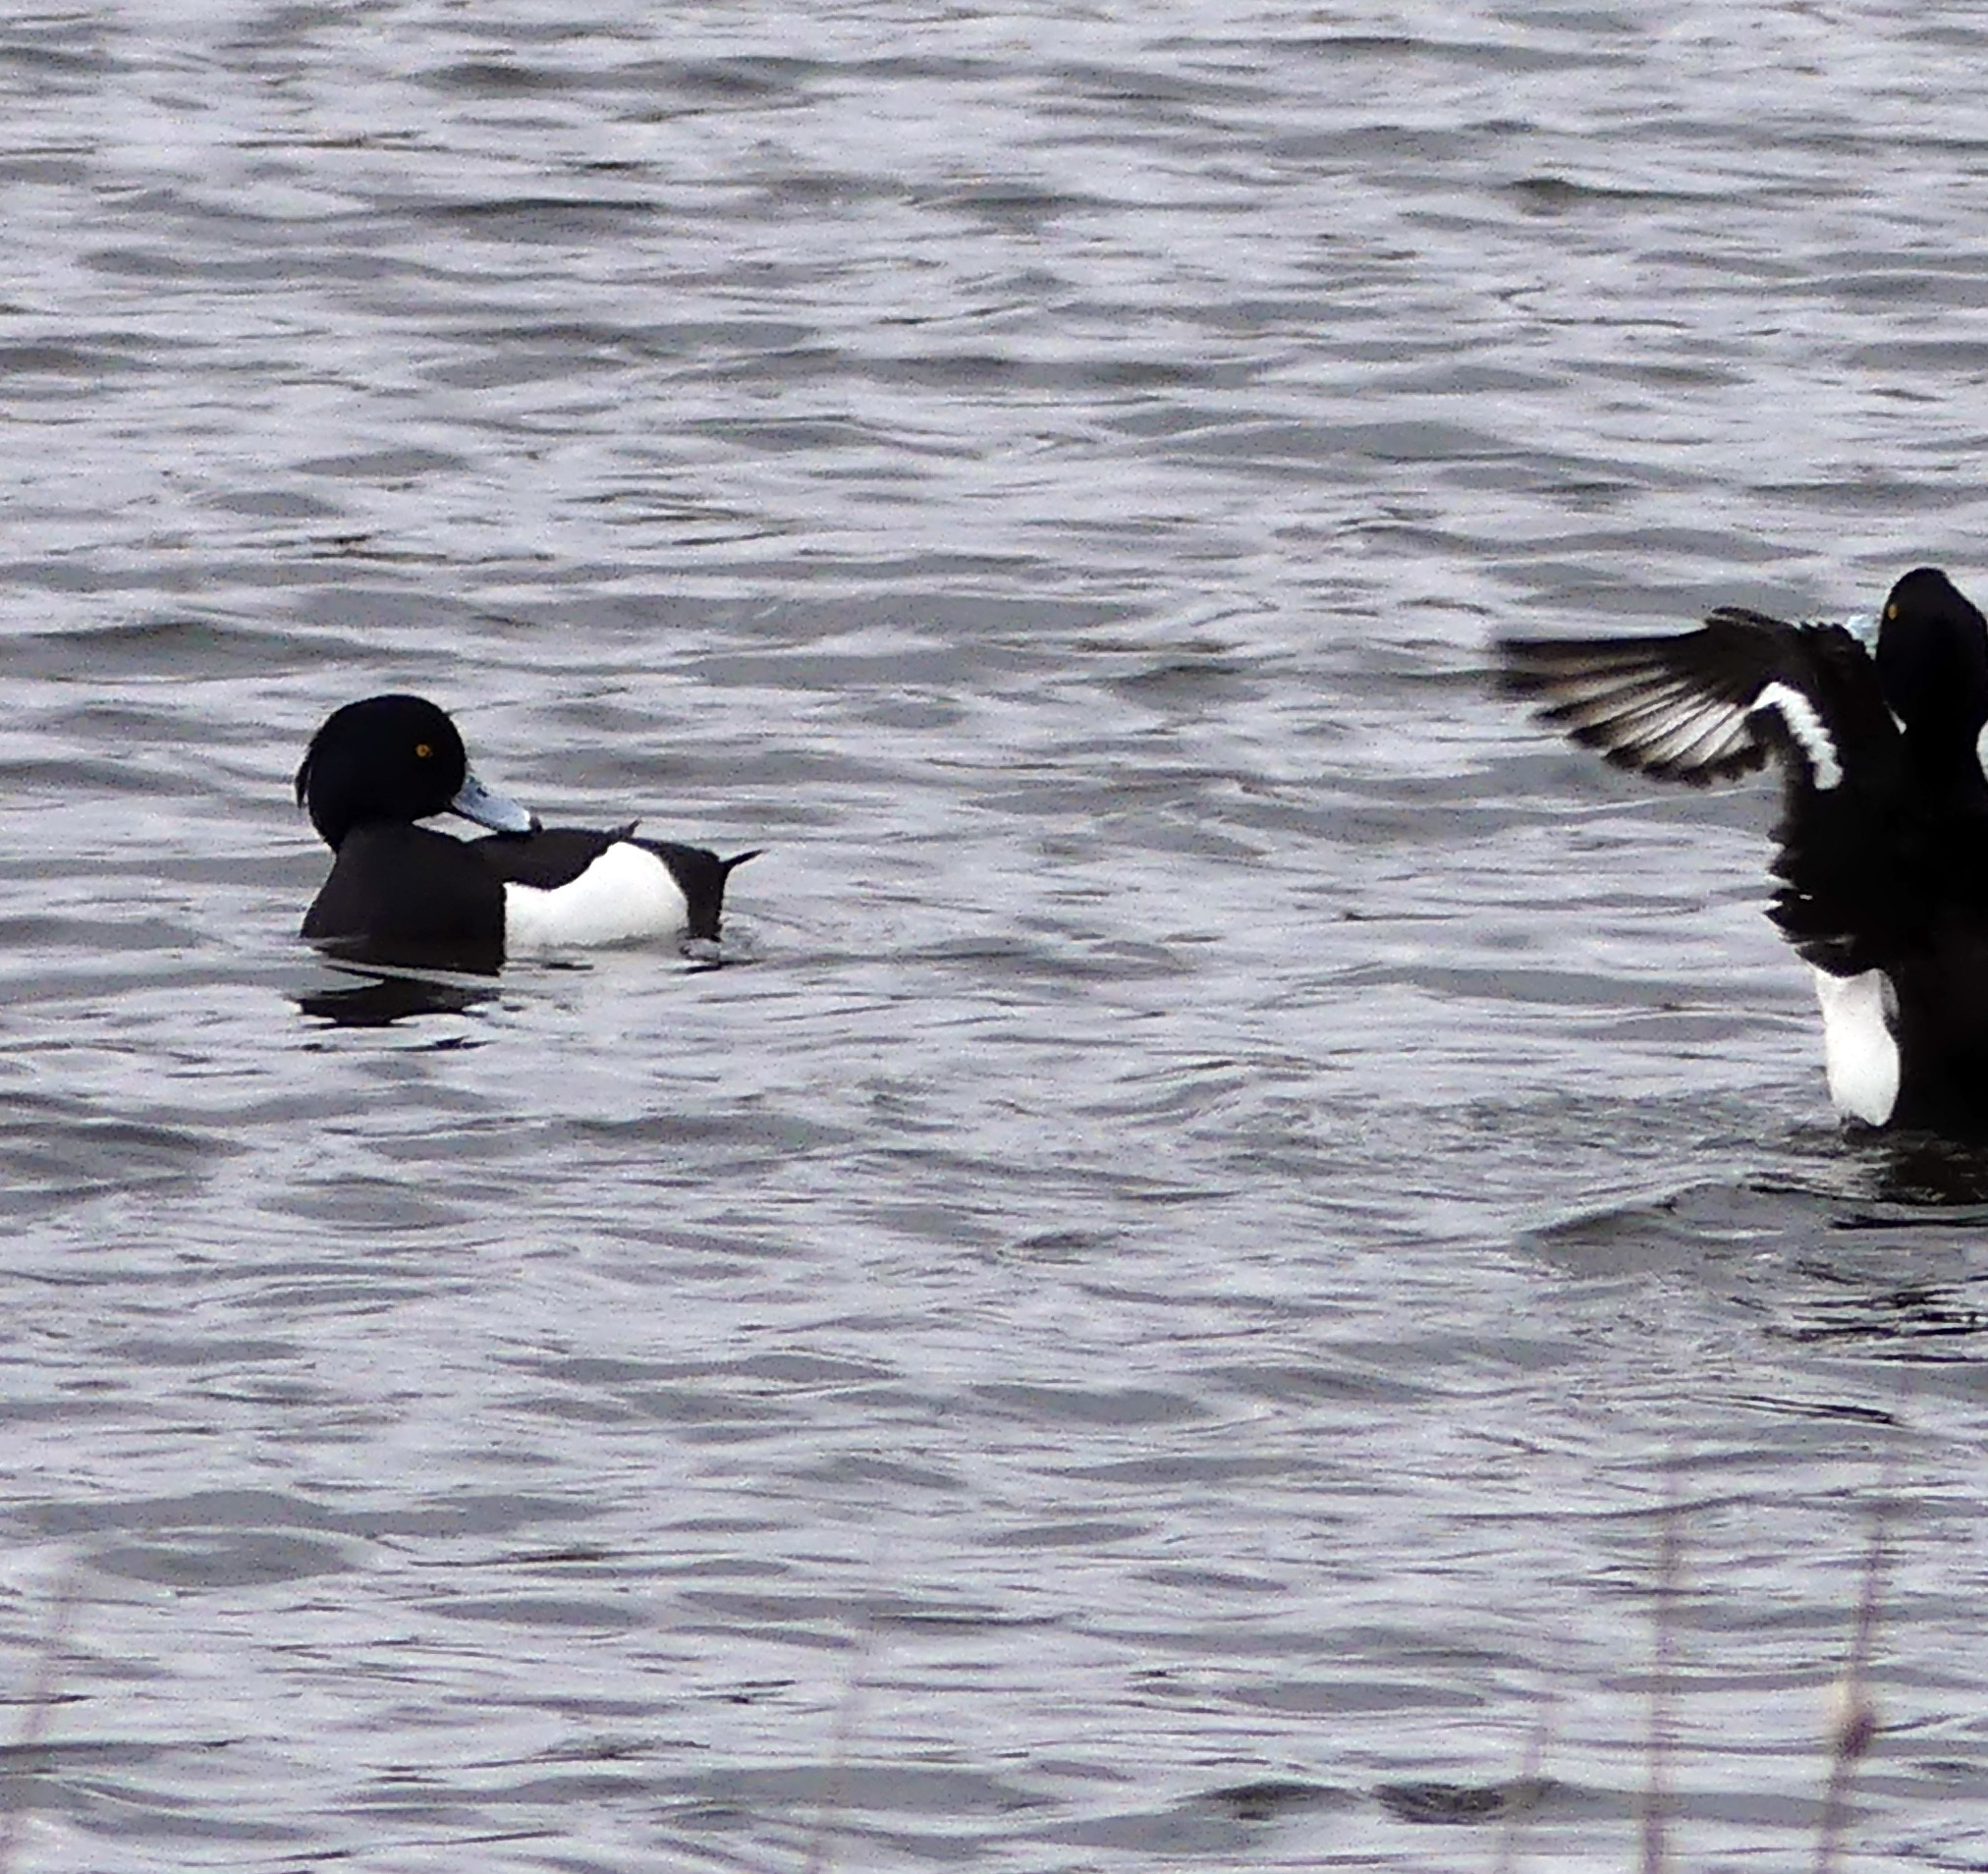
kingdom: Animalia
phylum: Chordata
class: Aves
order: Anseriformes
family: Anatidae
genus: Aythya
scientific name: Aythya fuligula
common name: Tufted duck
